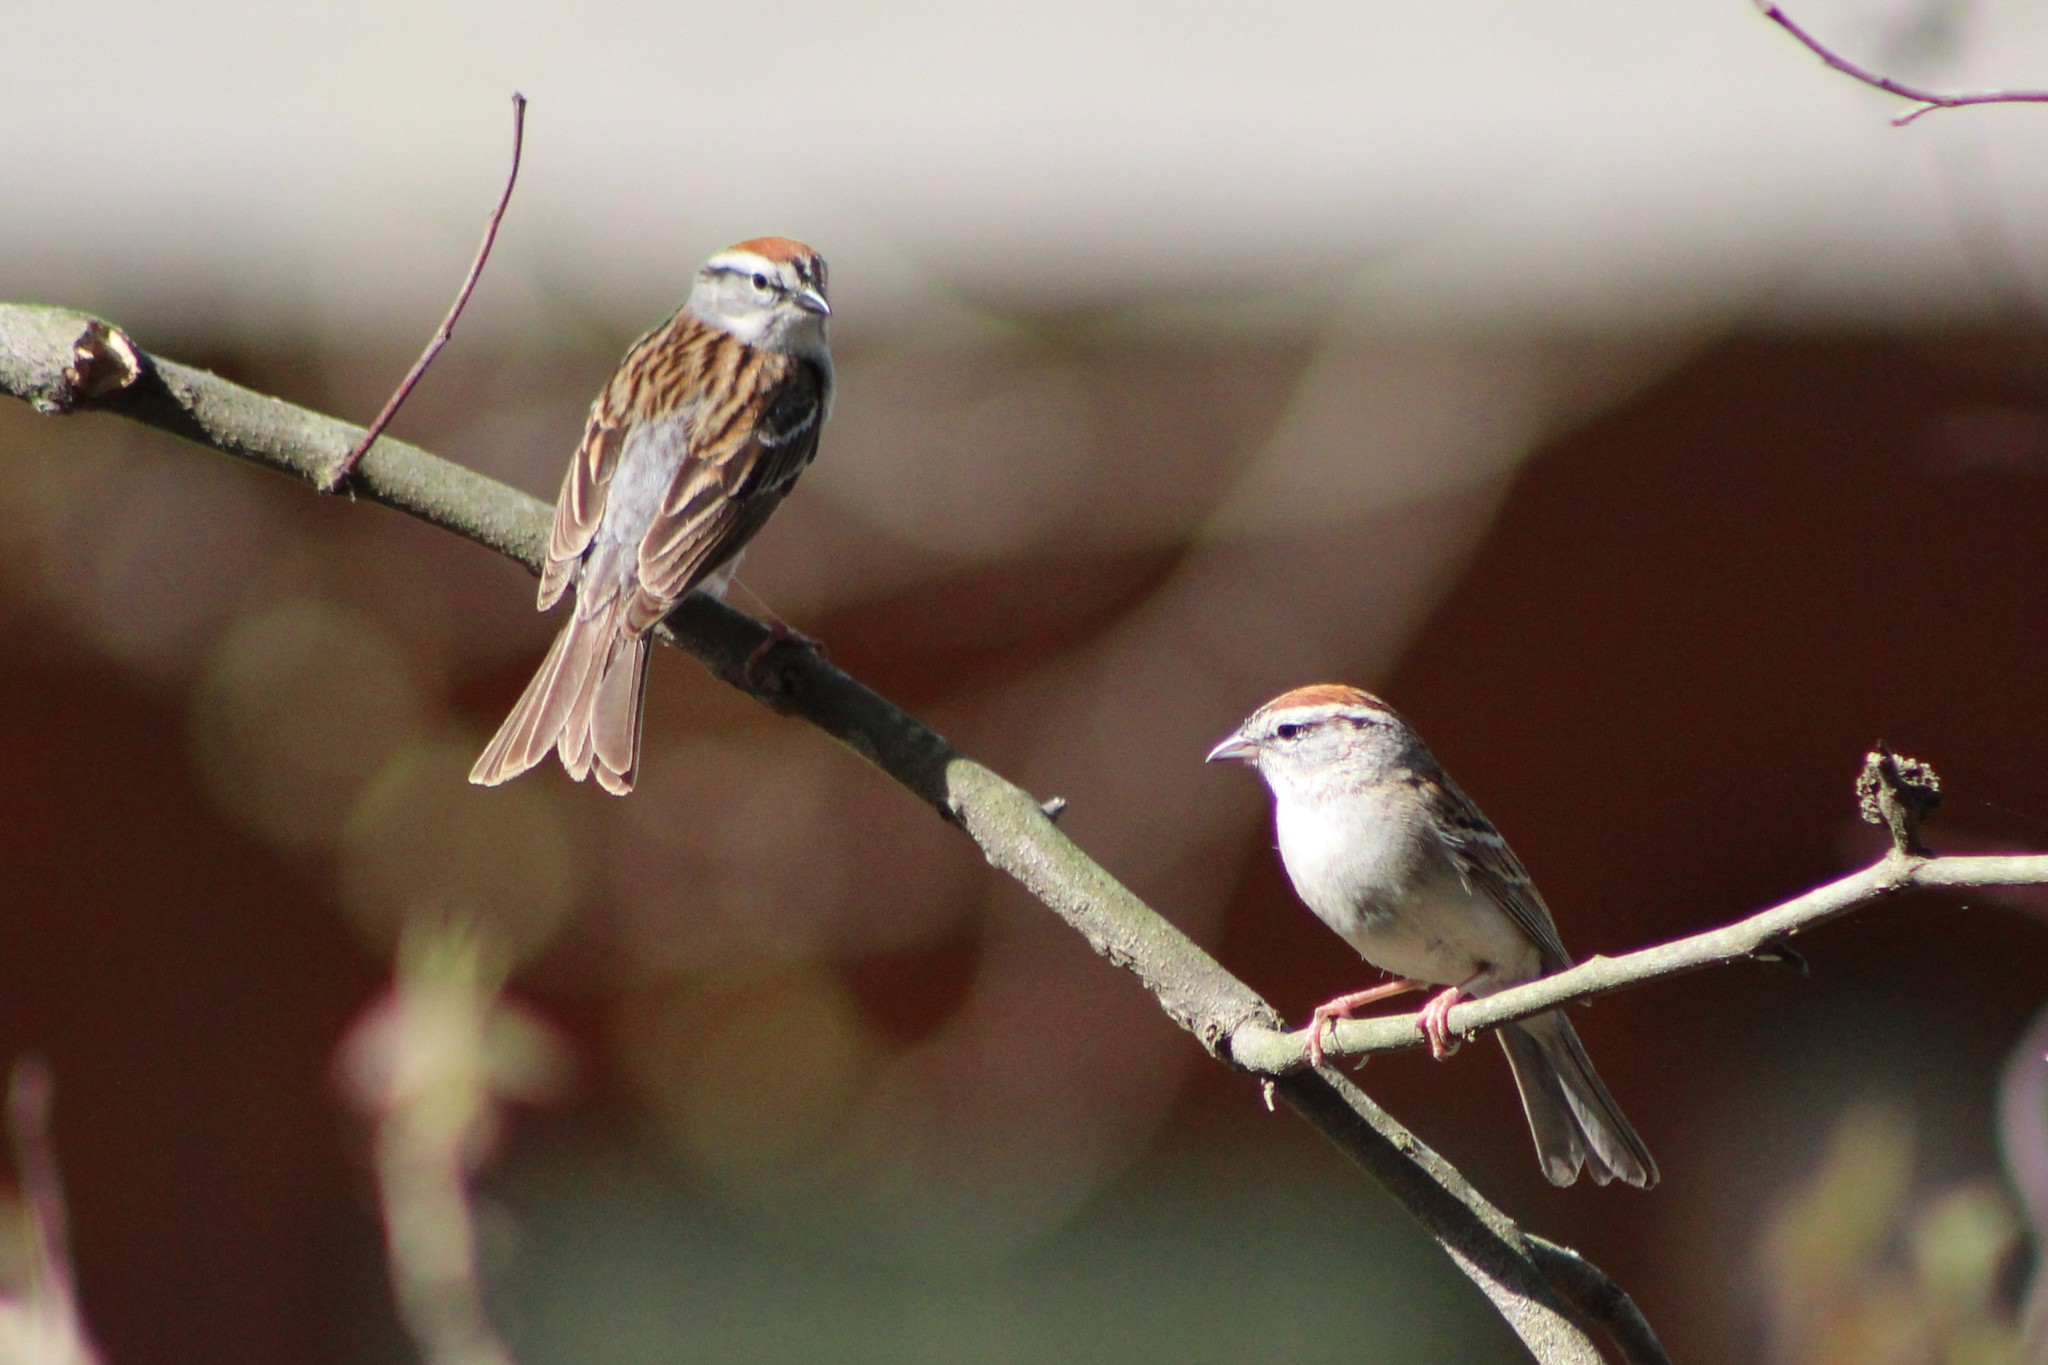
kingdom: Animalia
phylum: Chordata
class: Aves
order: Passeriformes
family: Passerellidae
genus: Spizella
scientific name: Spizella passerina
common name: Chipping sparrow
